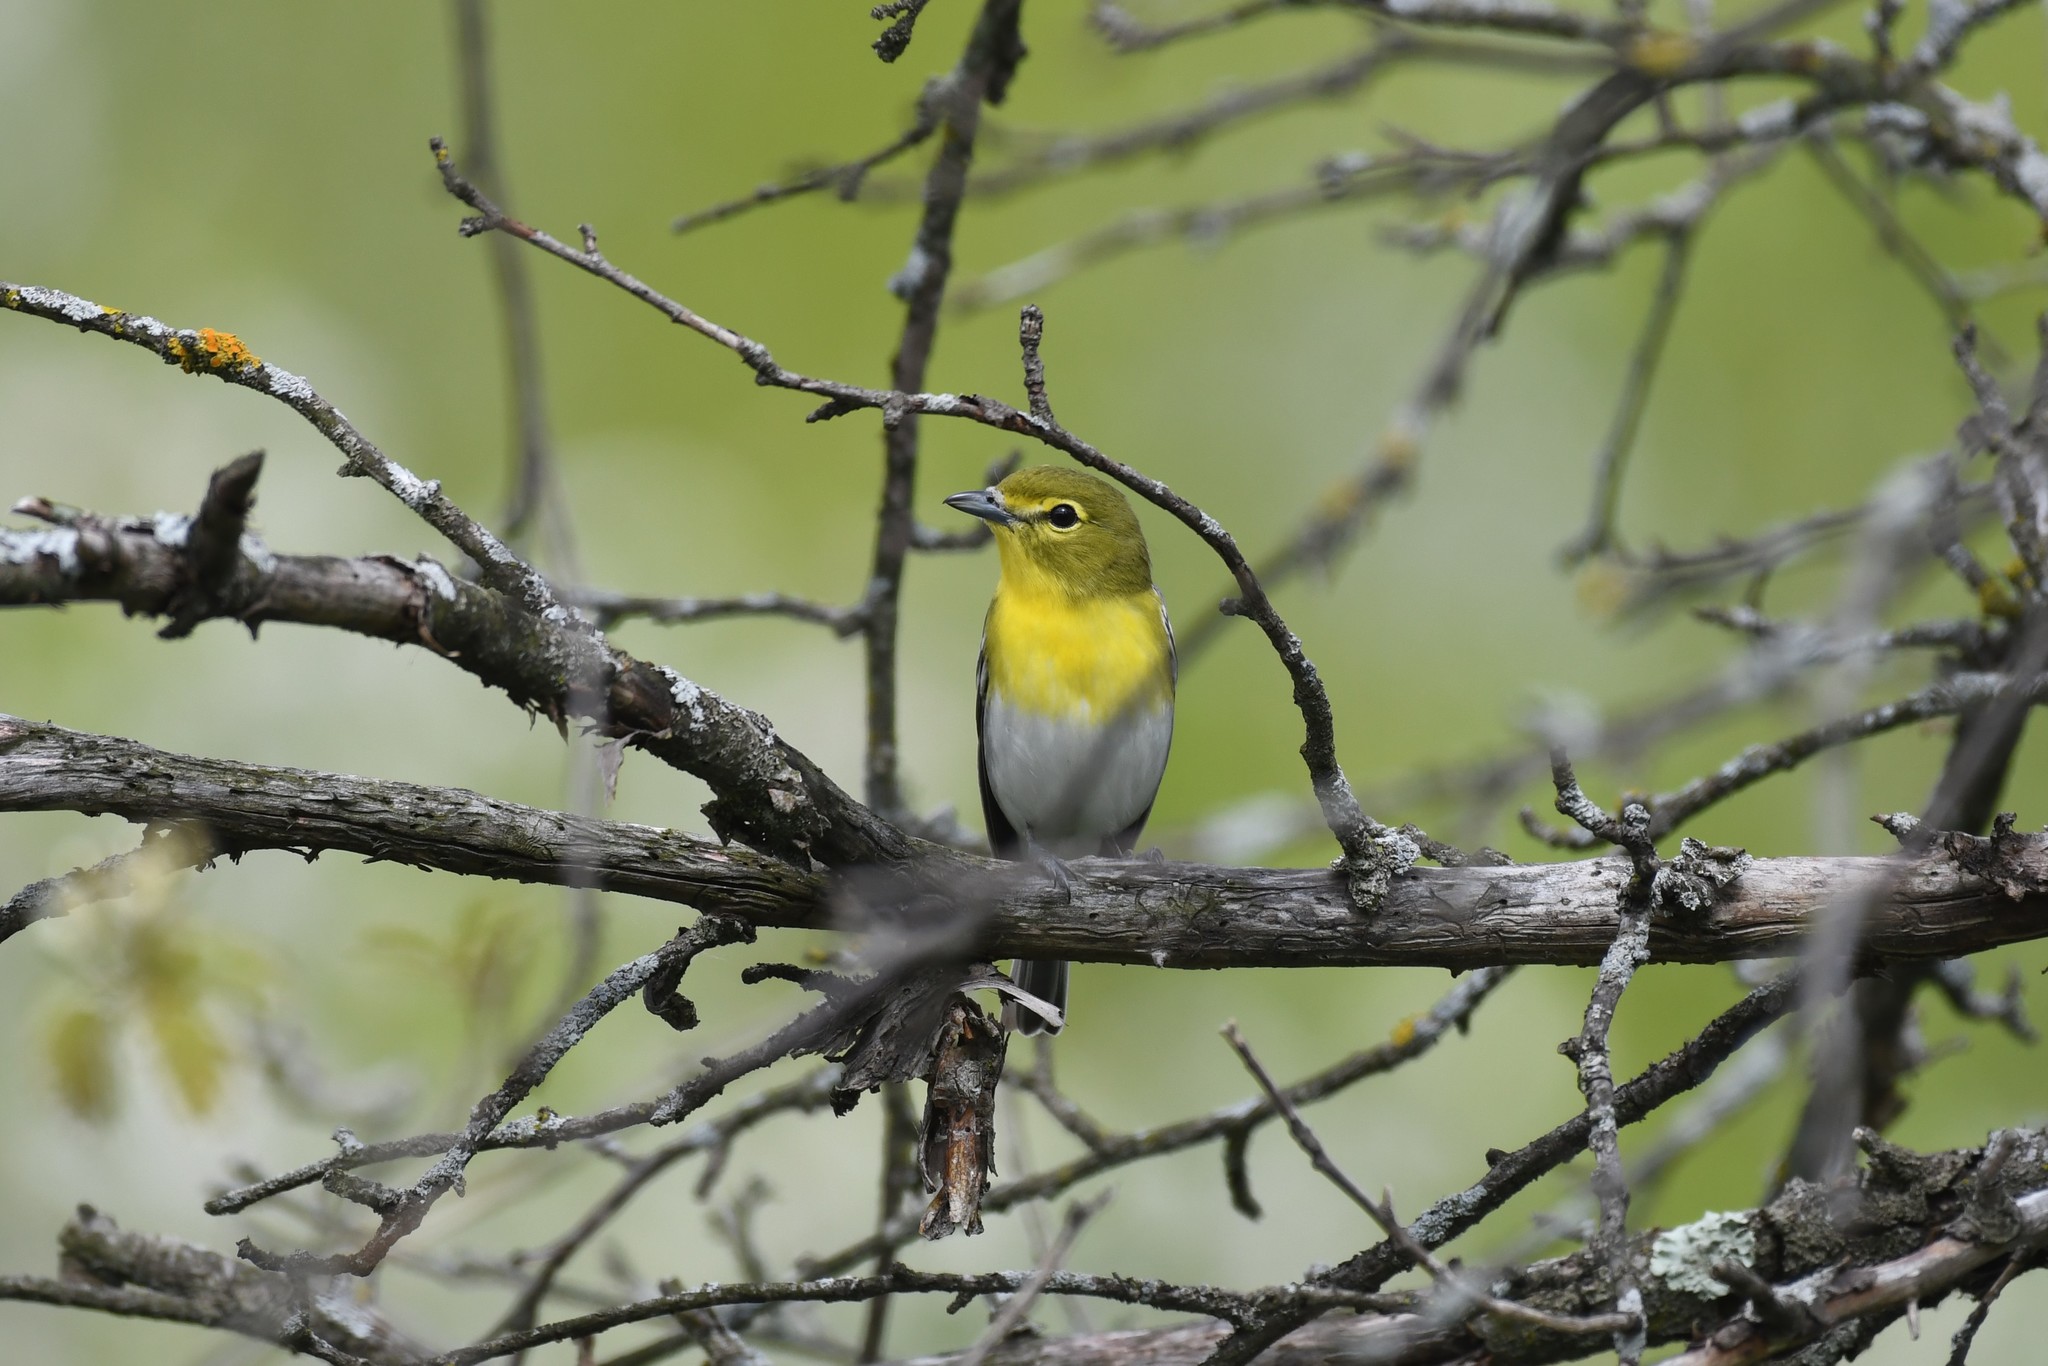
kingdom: Animalia
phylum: Chordata
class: Aves
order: Passeriformes
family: Vireonidae
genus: Vireo
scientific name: Vireo flavifrons
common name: Yellow-throated vireo
